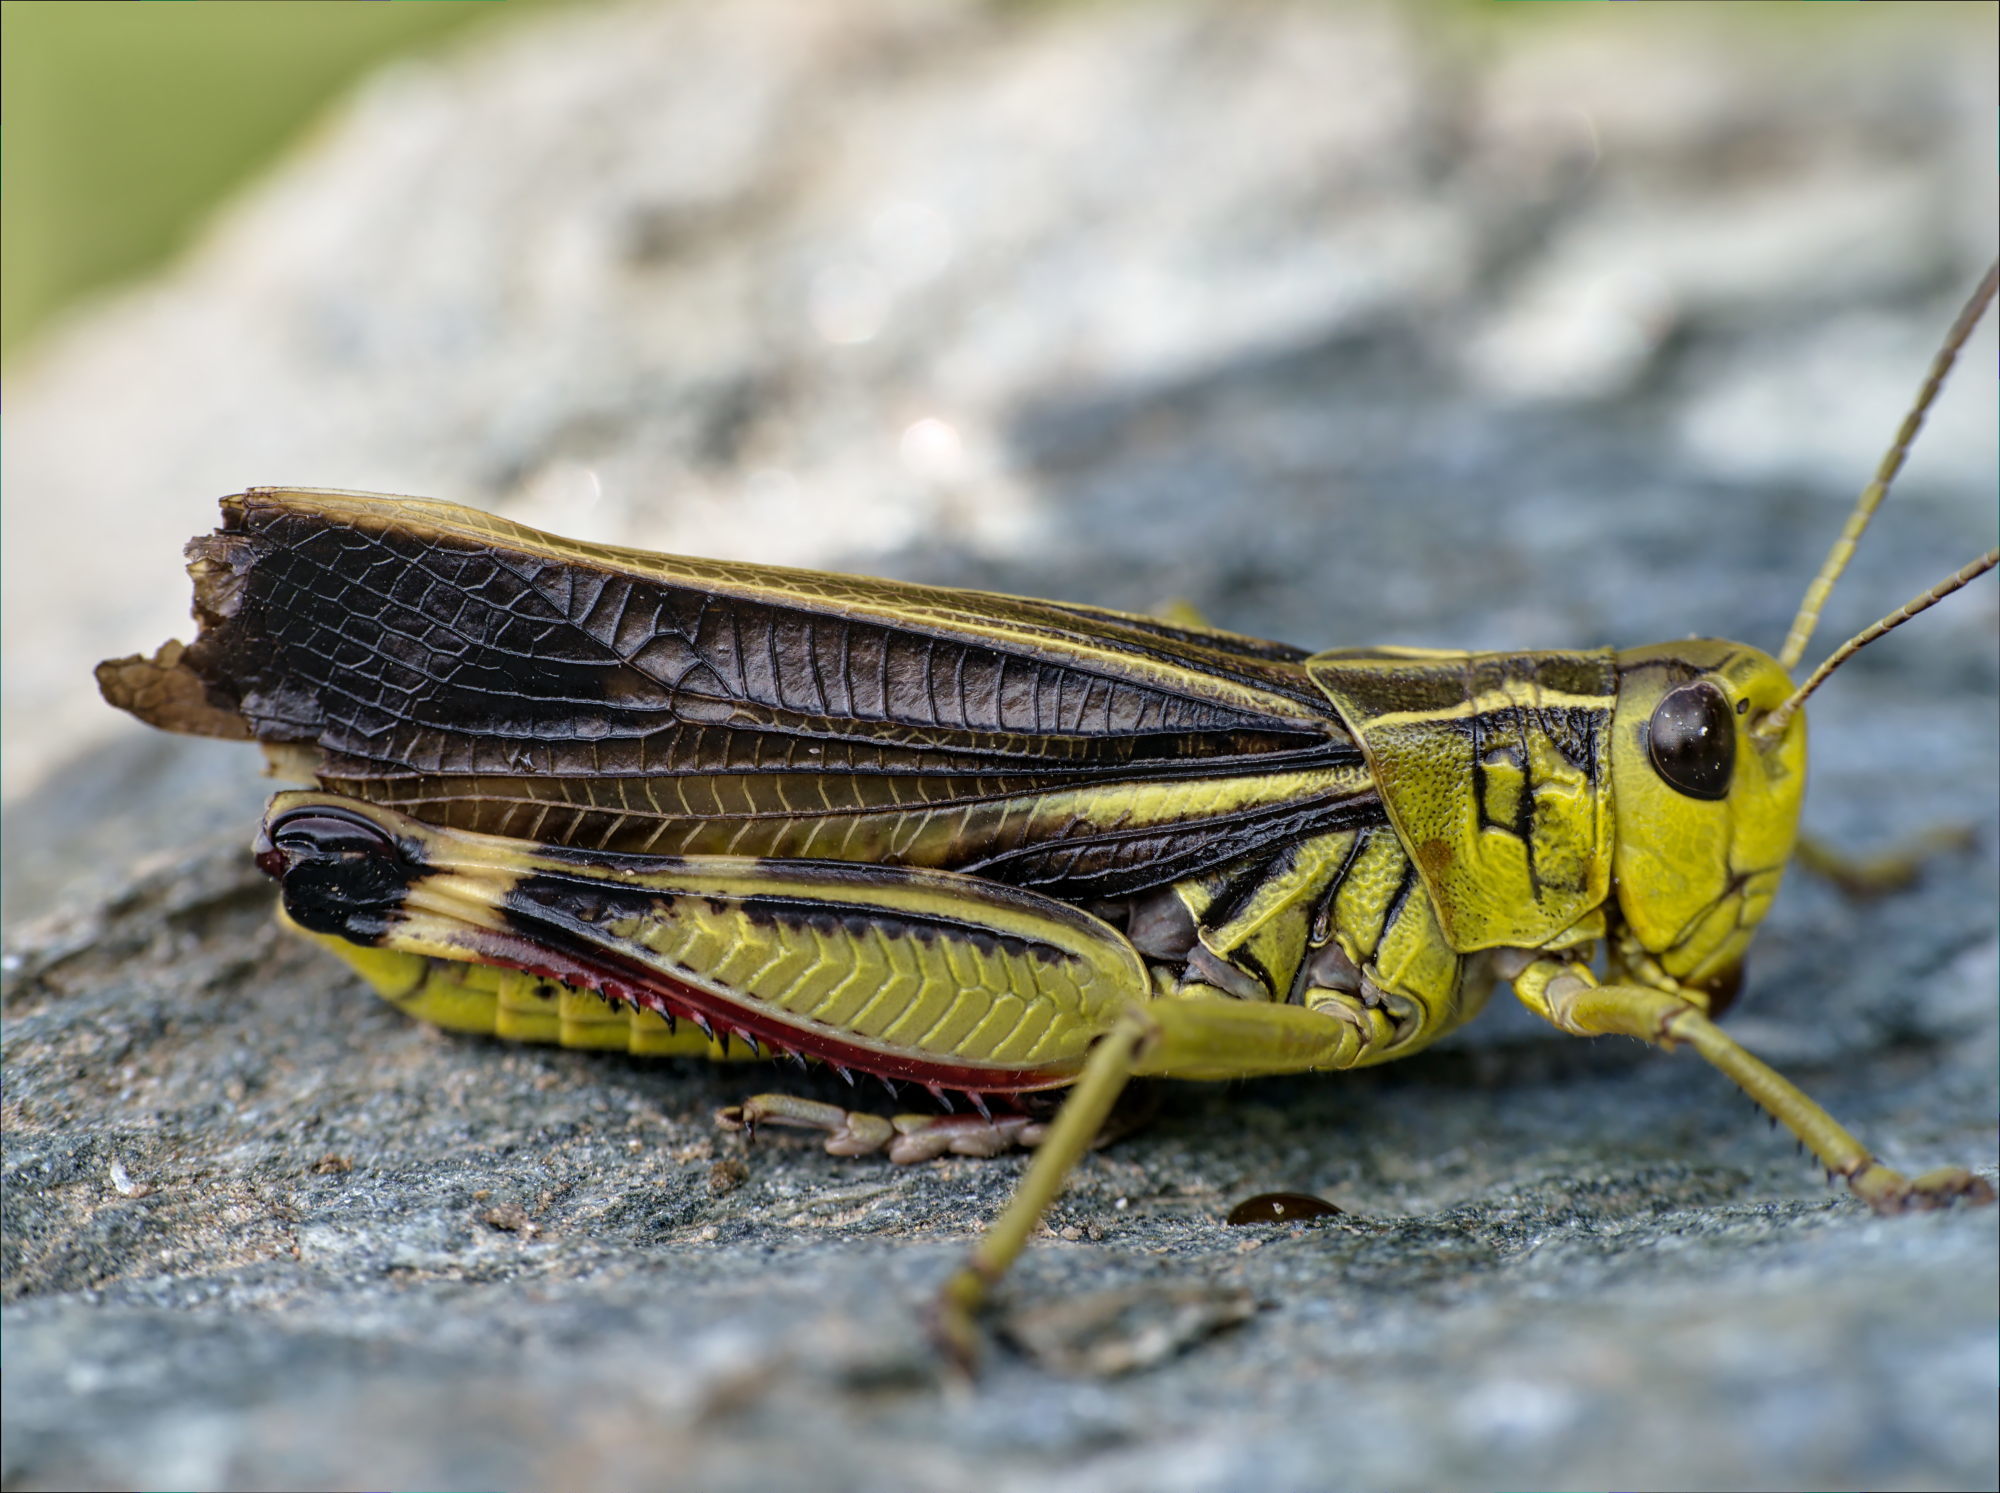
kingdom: Animalia
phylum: Arthropoda
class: Insecta
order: Orthoptera
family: Acrididae
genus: Arcyptera
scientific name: Arcyptera fusca
